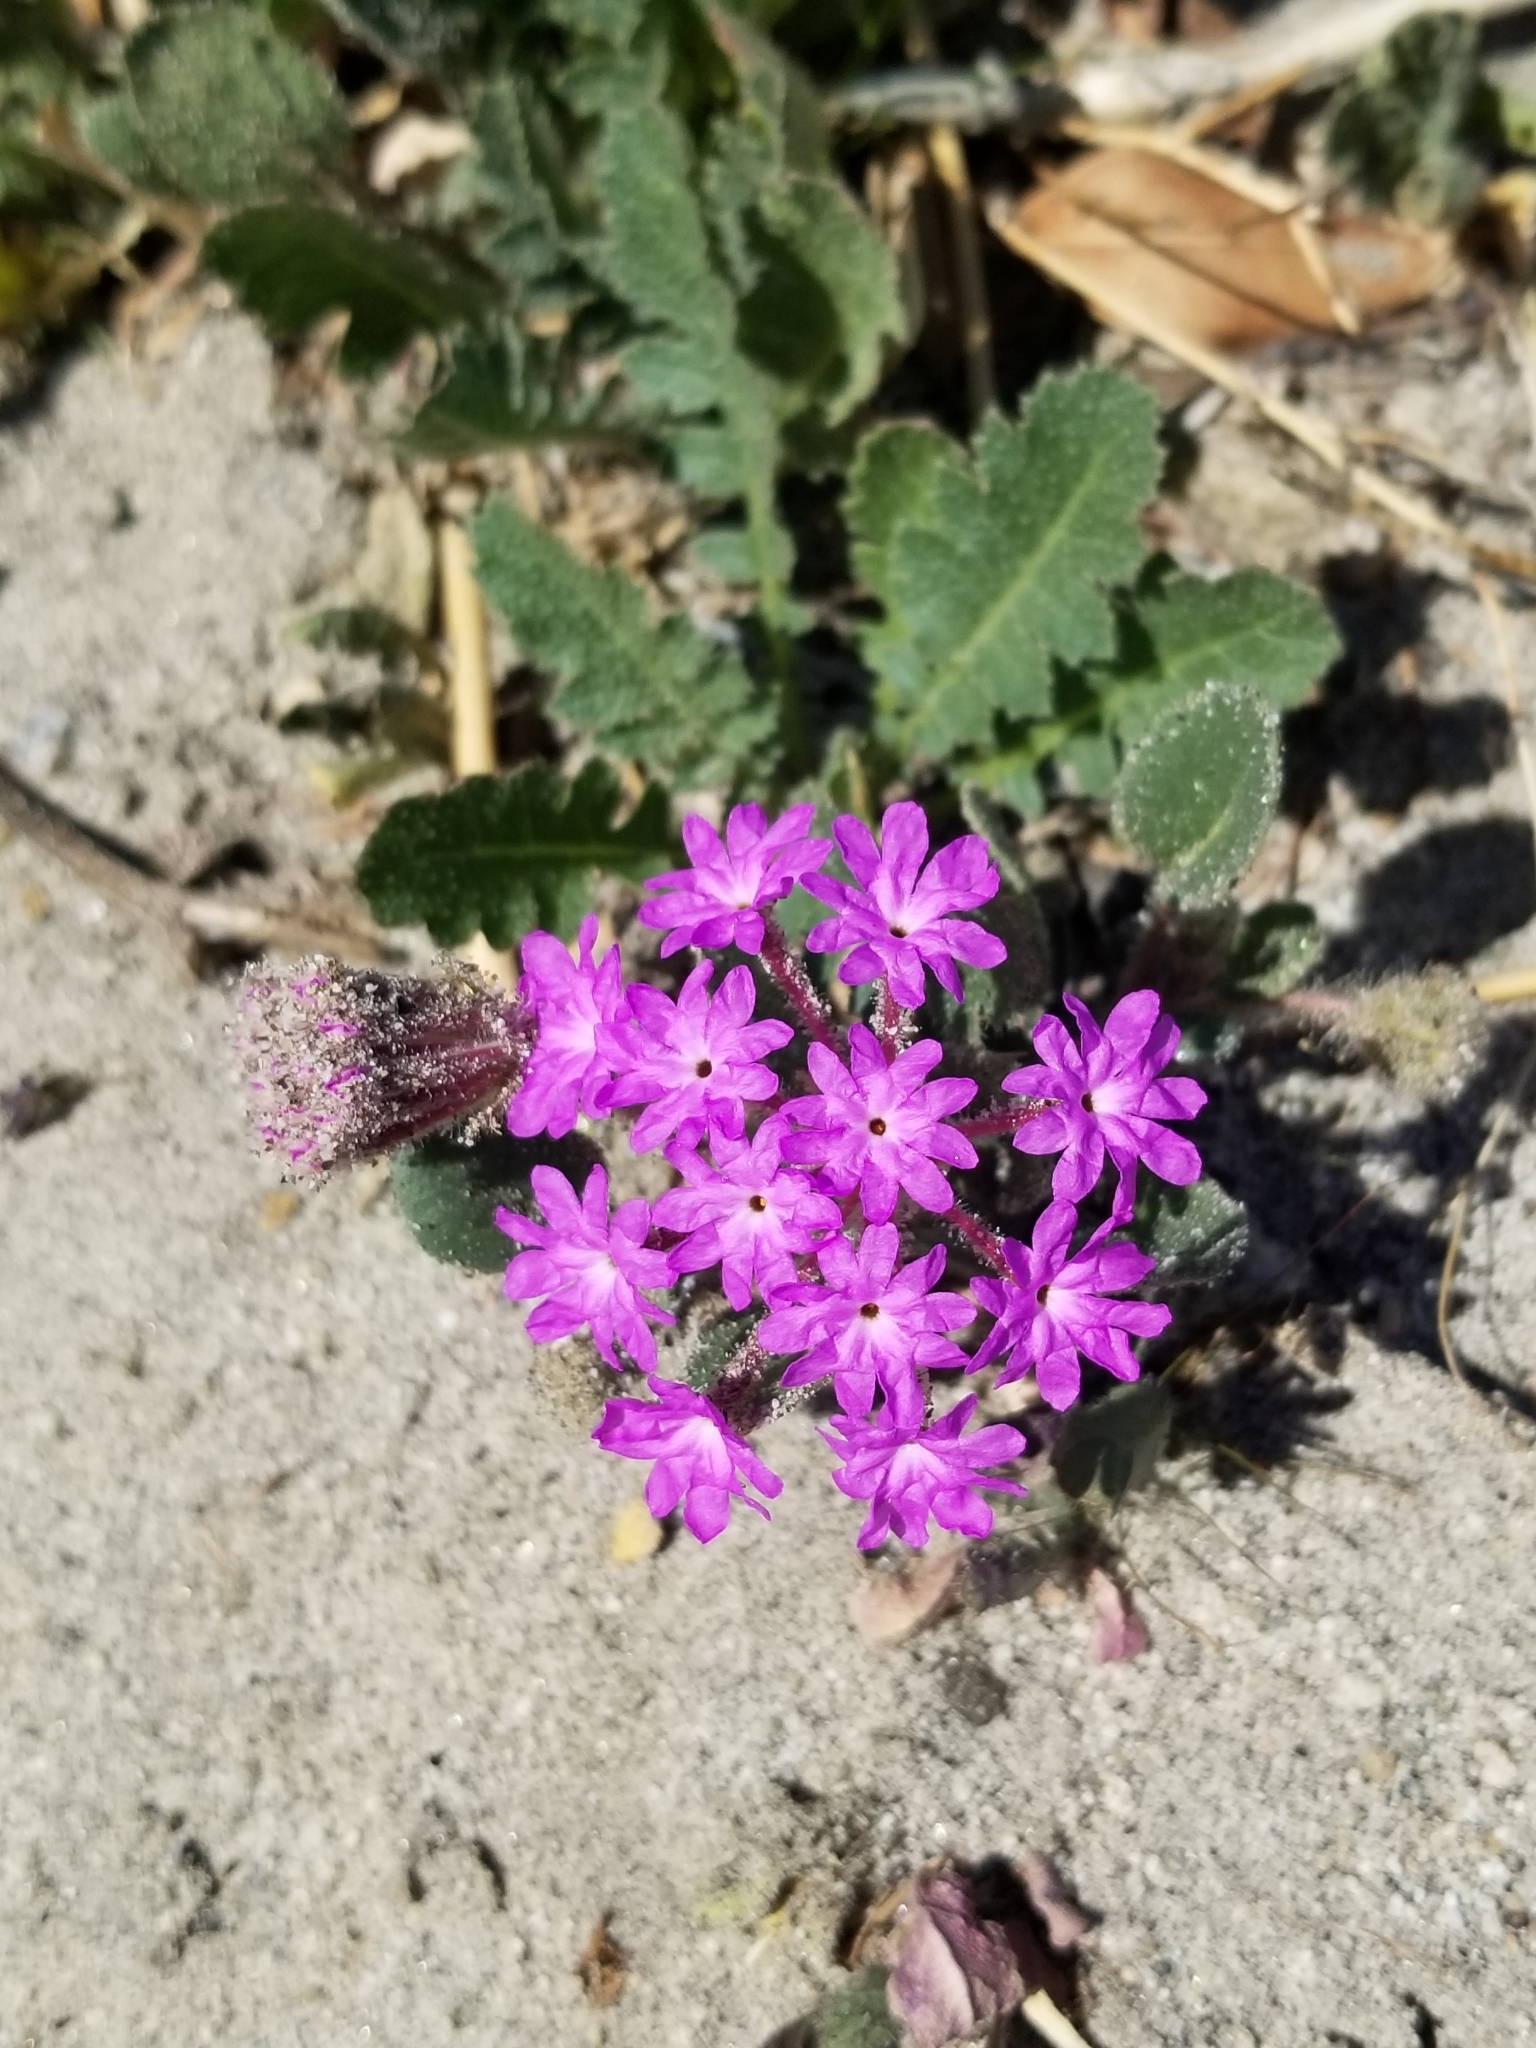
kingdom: Plantae
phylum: Tracheophyta
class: Magnoliopsida
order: Caryophyllales
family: Nyctaginaceae
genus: Abronia
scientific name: Abronia villosa
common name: Desert sand-verbena
